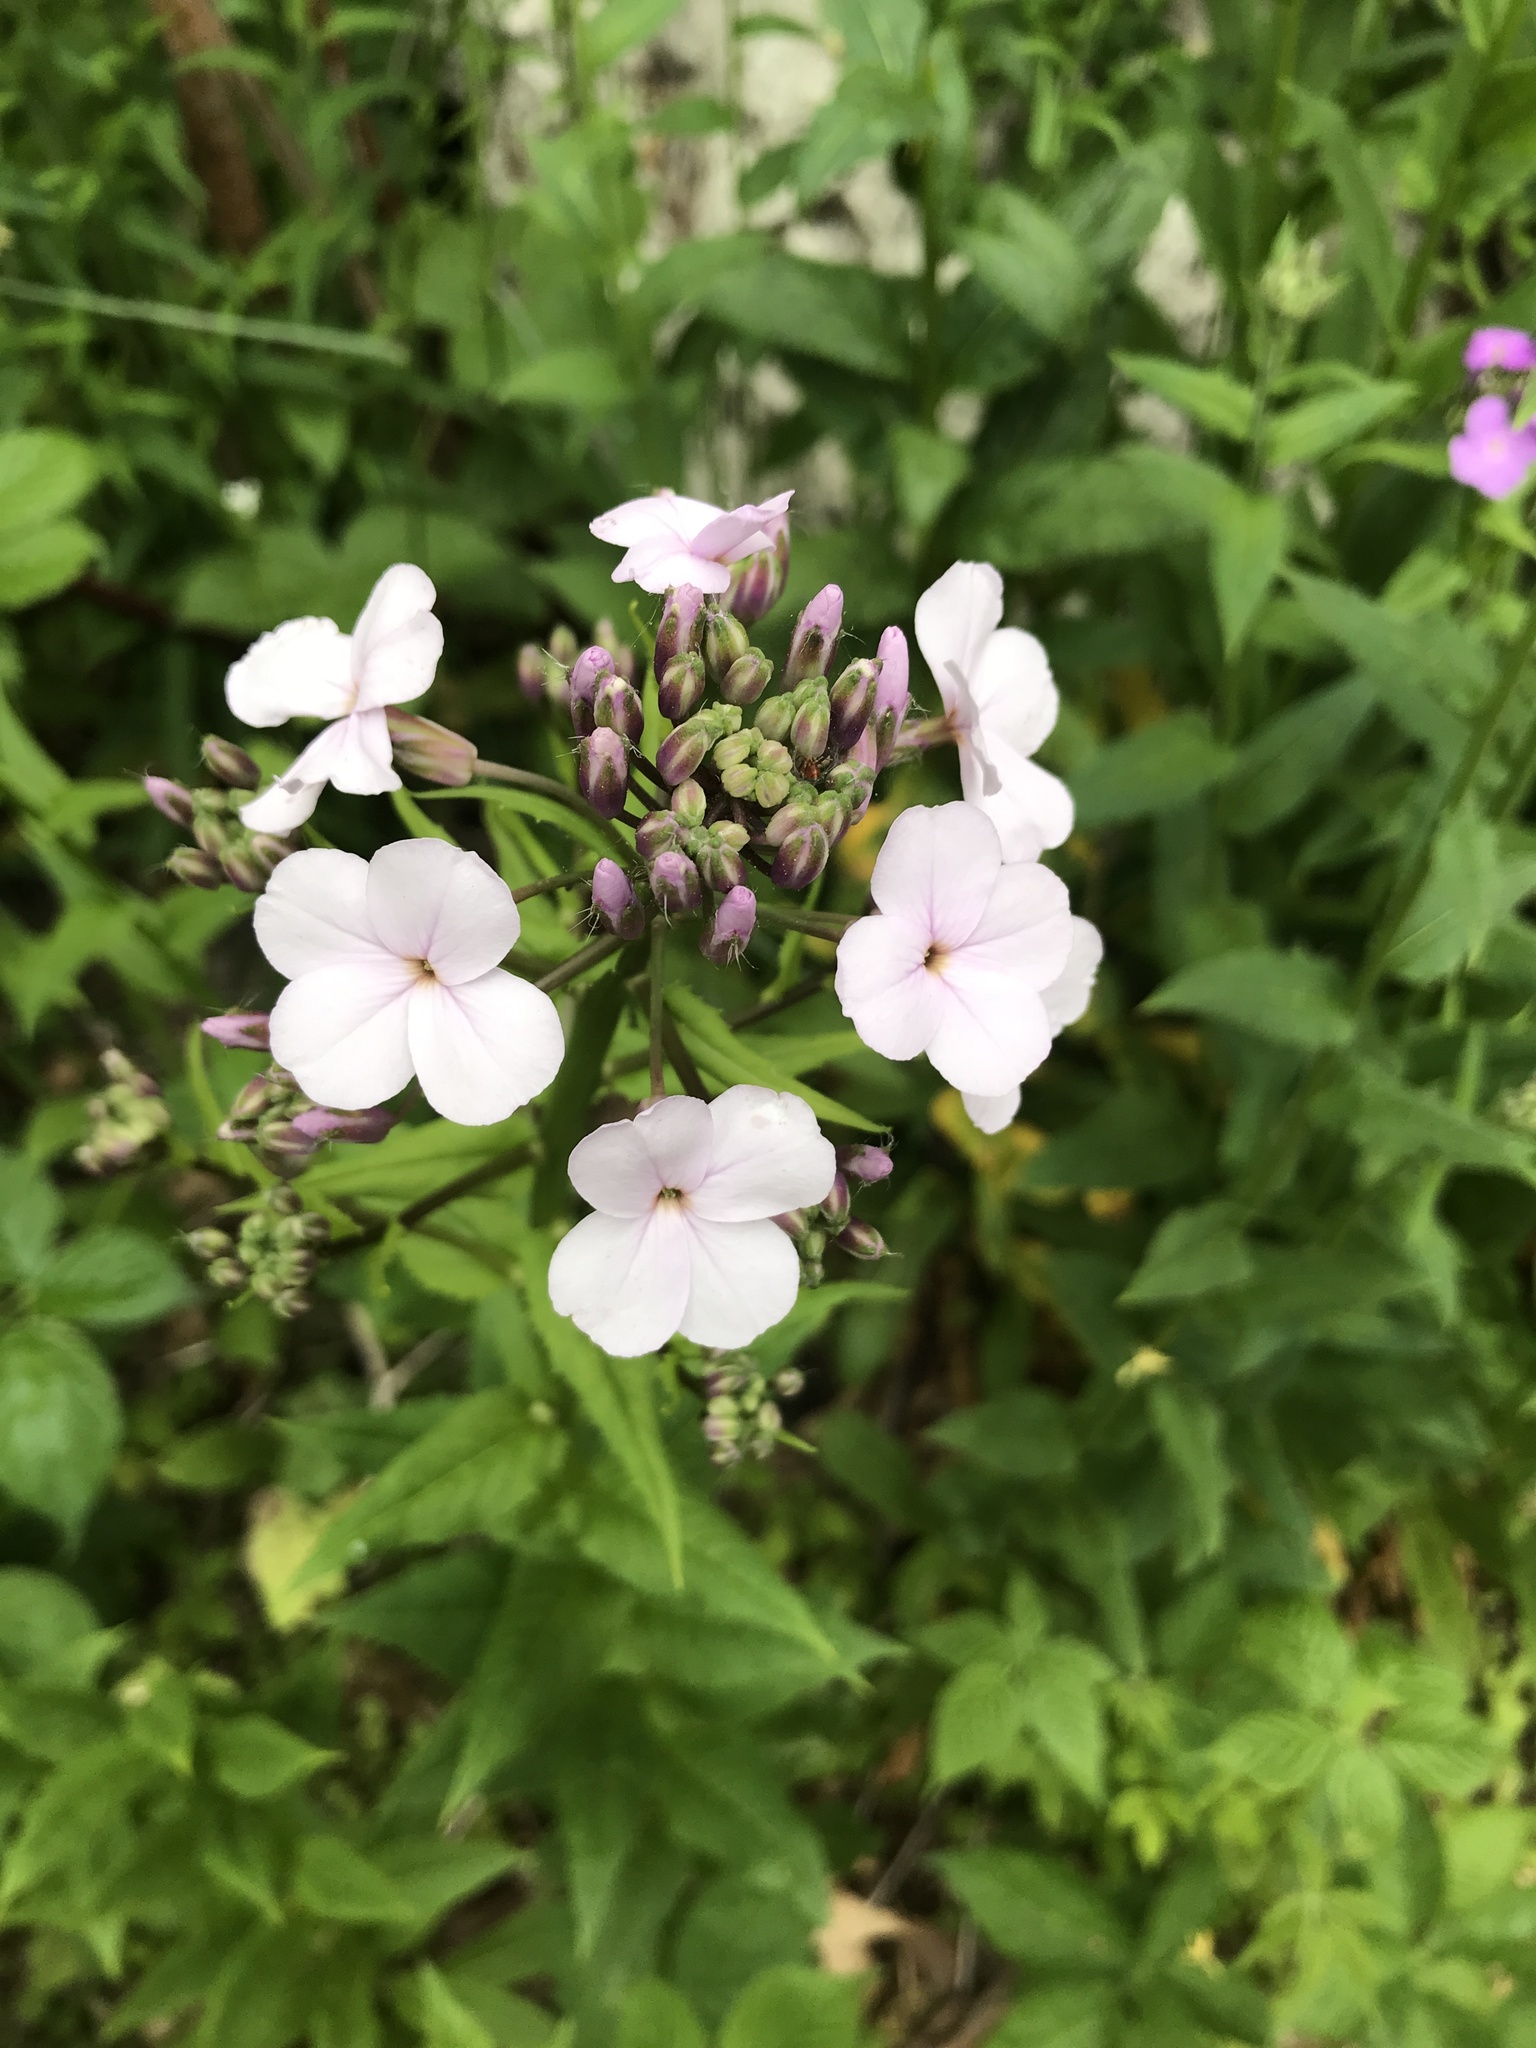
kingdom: Plantae
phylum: Tracheophyta
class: Magnoliopsida
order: Brassicales
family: Brassicaceae
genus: Hesperis
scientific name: Hesperis matronalis
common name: Dame's-violet
